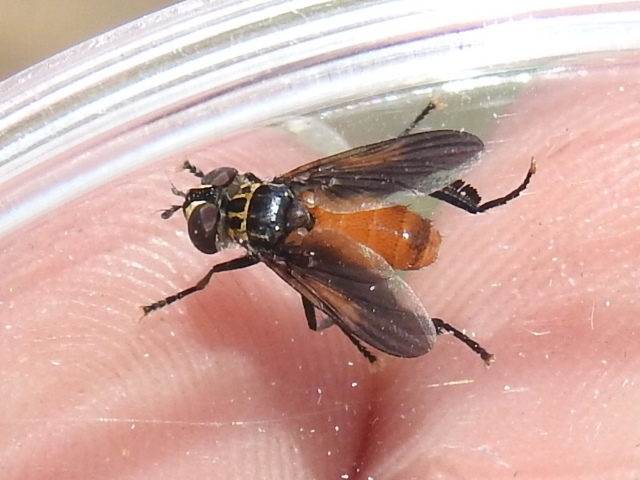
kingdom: Animalia
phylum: Arthropoda
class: Insecta
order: Diptera
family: Tachinidae
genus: Trichopoda
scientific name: Trichopoda pennipes
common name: Tachinid fly
